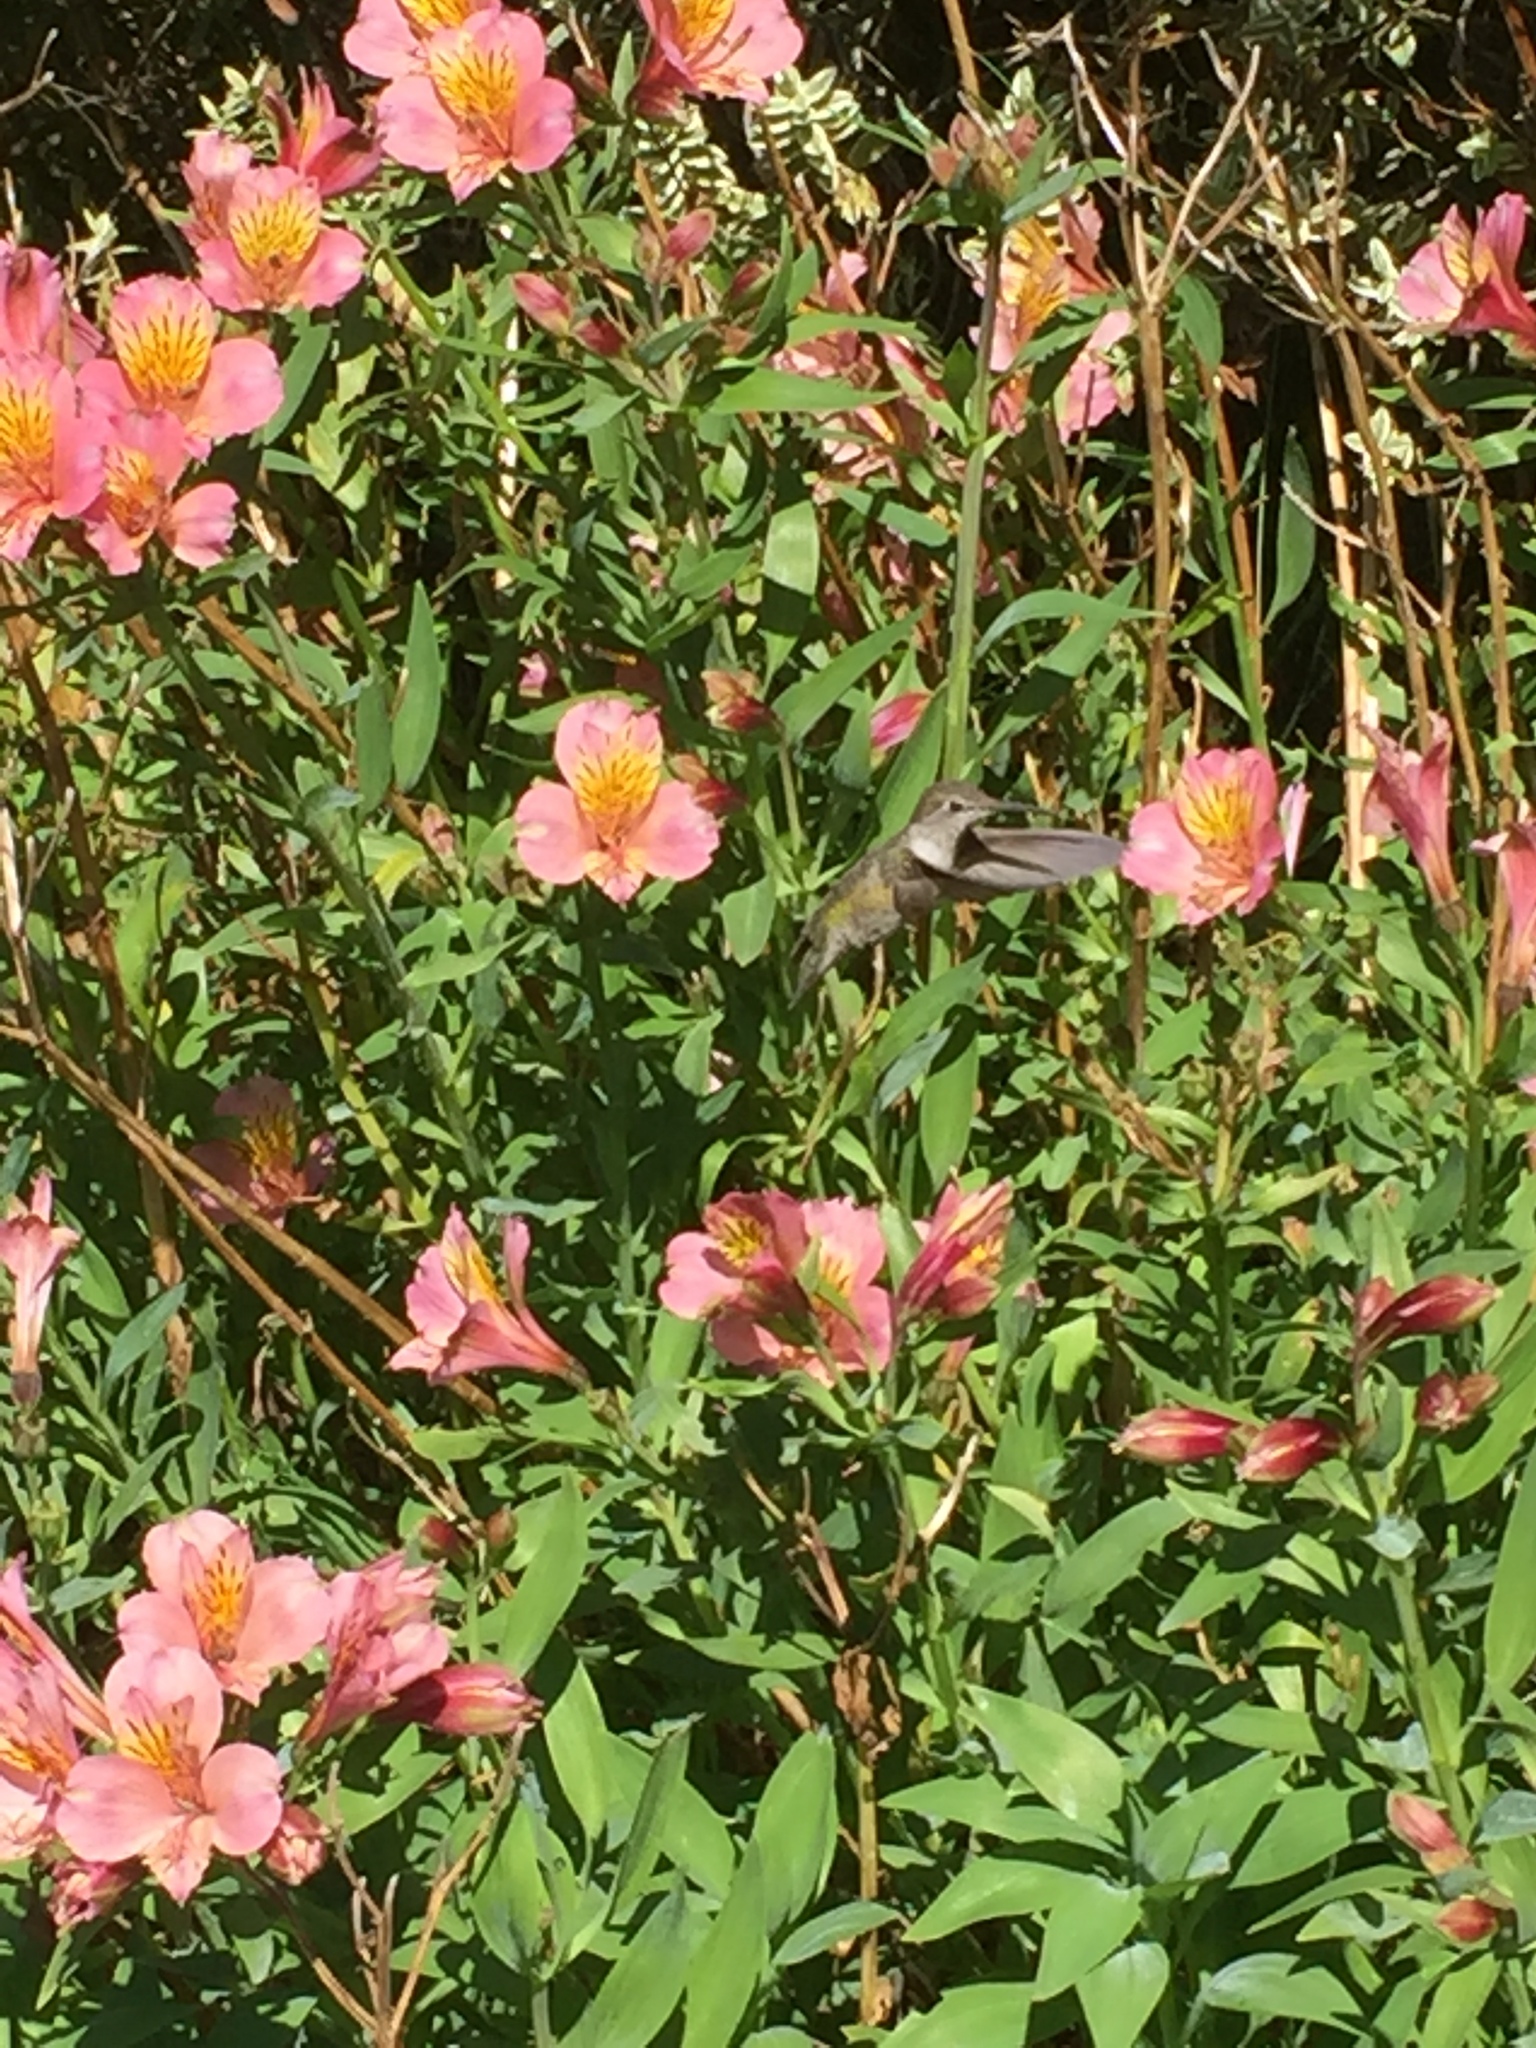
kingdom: Animalia
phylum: Chordata
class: Aves
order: Apodiformes
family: Trochilidae
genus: Calypte
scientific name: Calypte anna
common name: Anna's hummingbird
